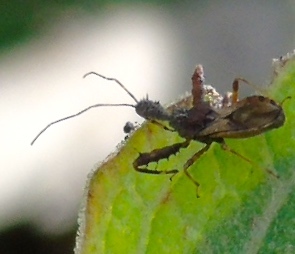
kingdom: Animalia
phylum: Arthropoda
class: Insecta
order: Hemiptera
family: Reduviidae
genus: Sinea
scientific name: Sinea
